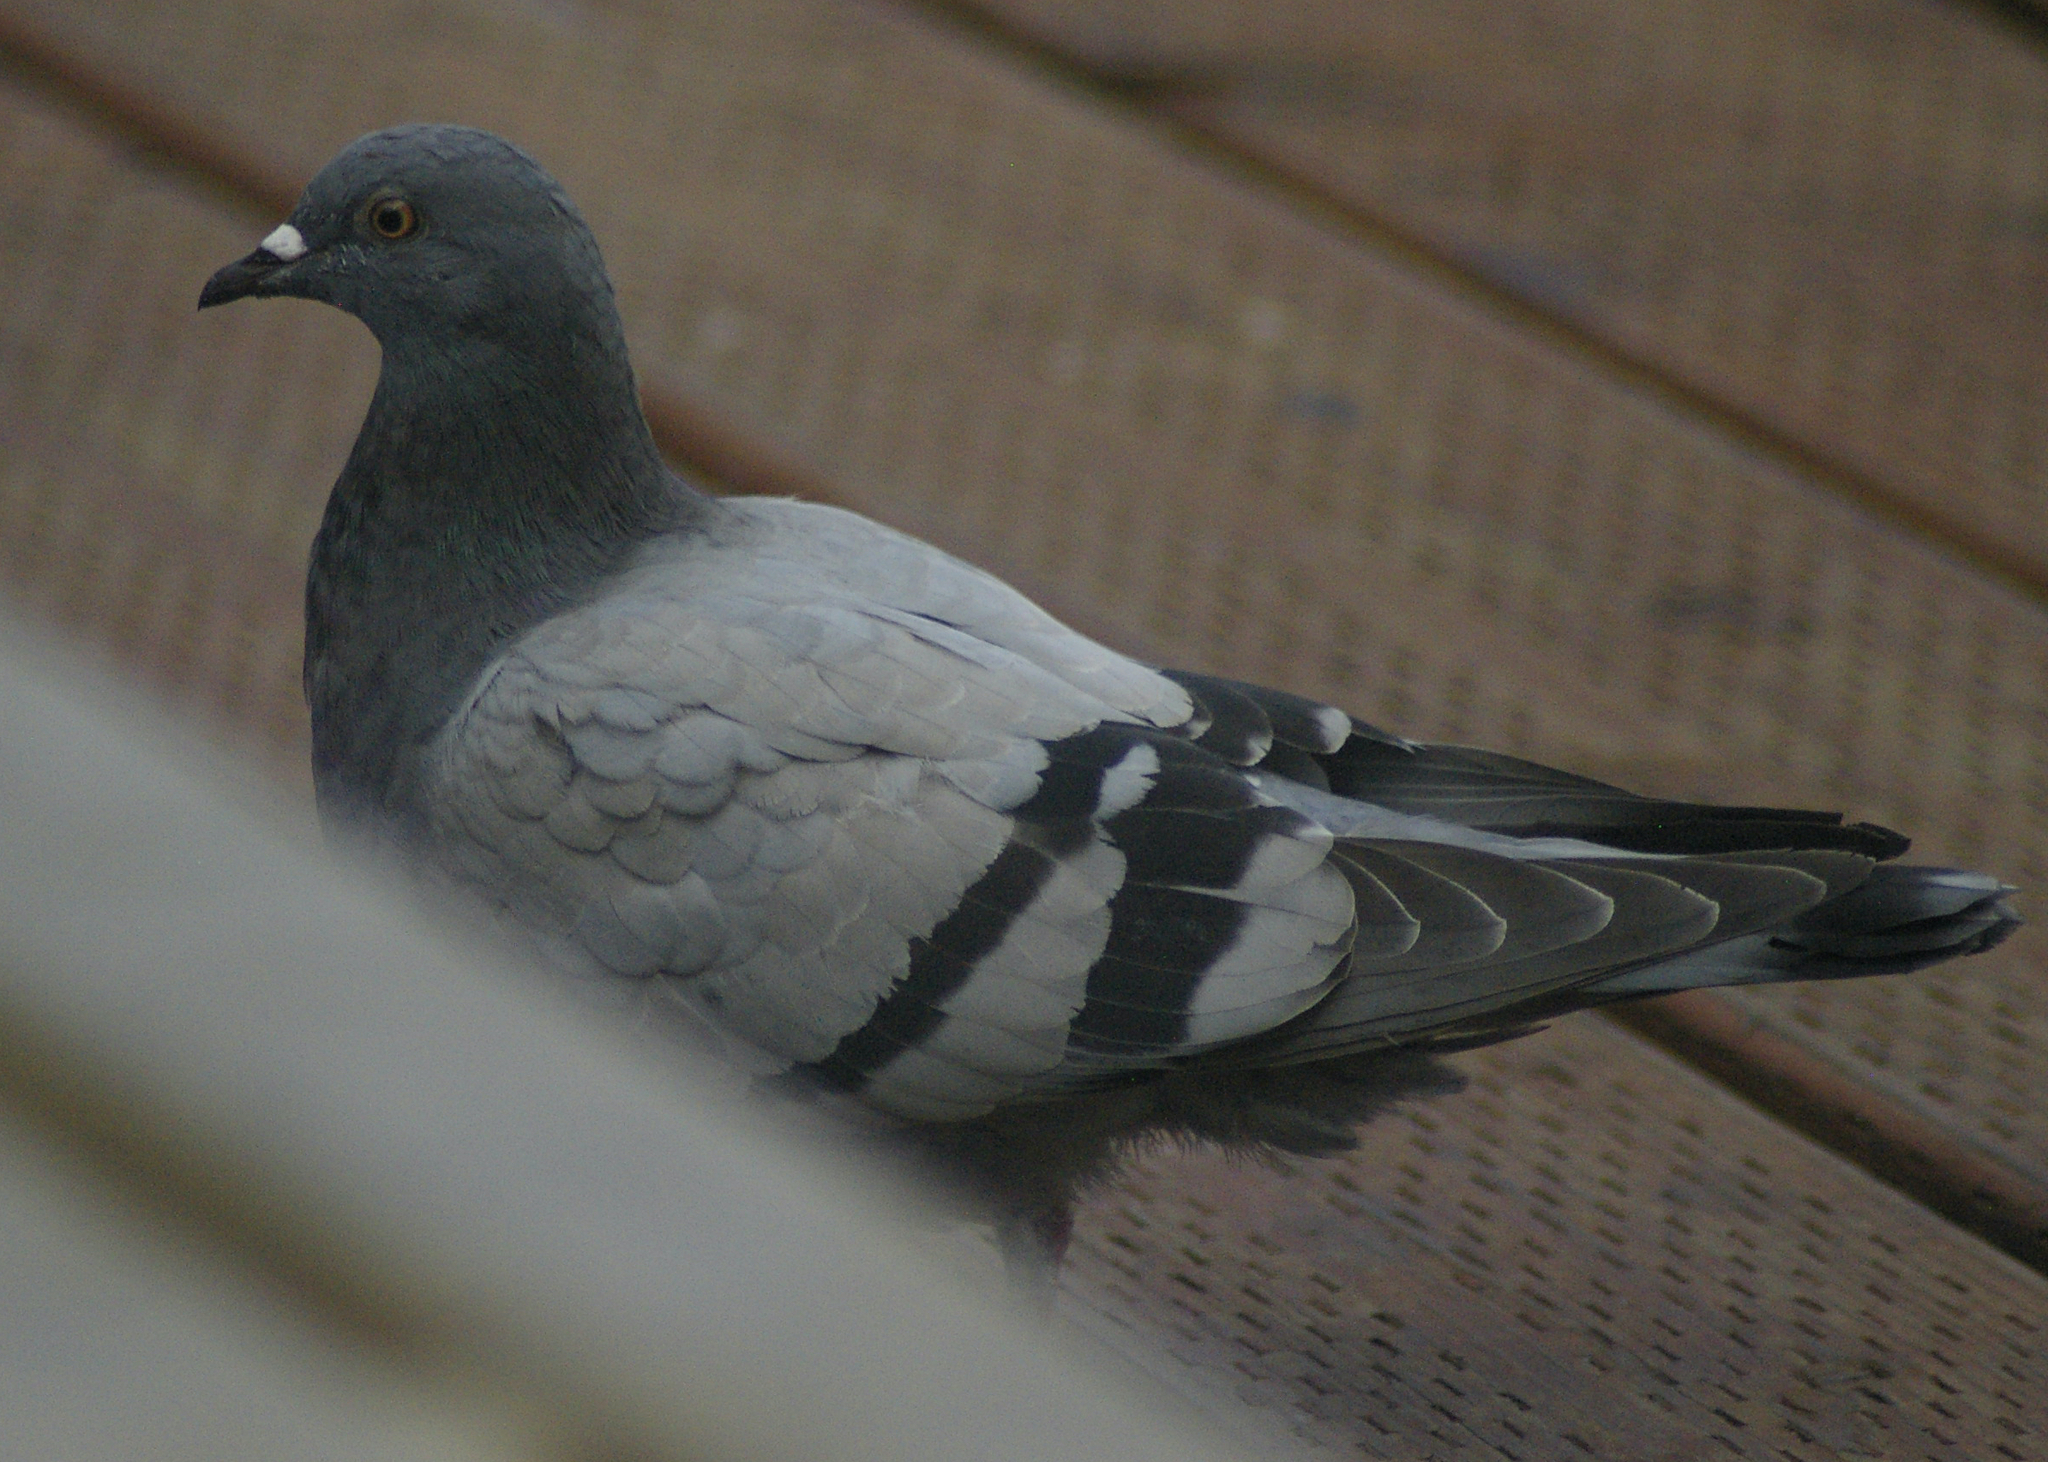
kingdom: Animalia
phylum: Chordata
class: Aves
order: Columbiformes
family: Columbidae
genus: Columba
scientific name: Columba livia
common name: Rock pigeon
